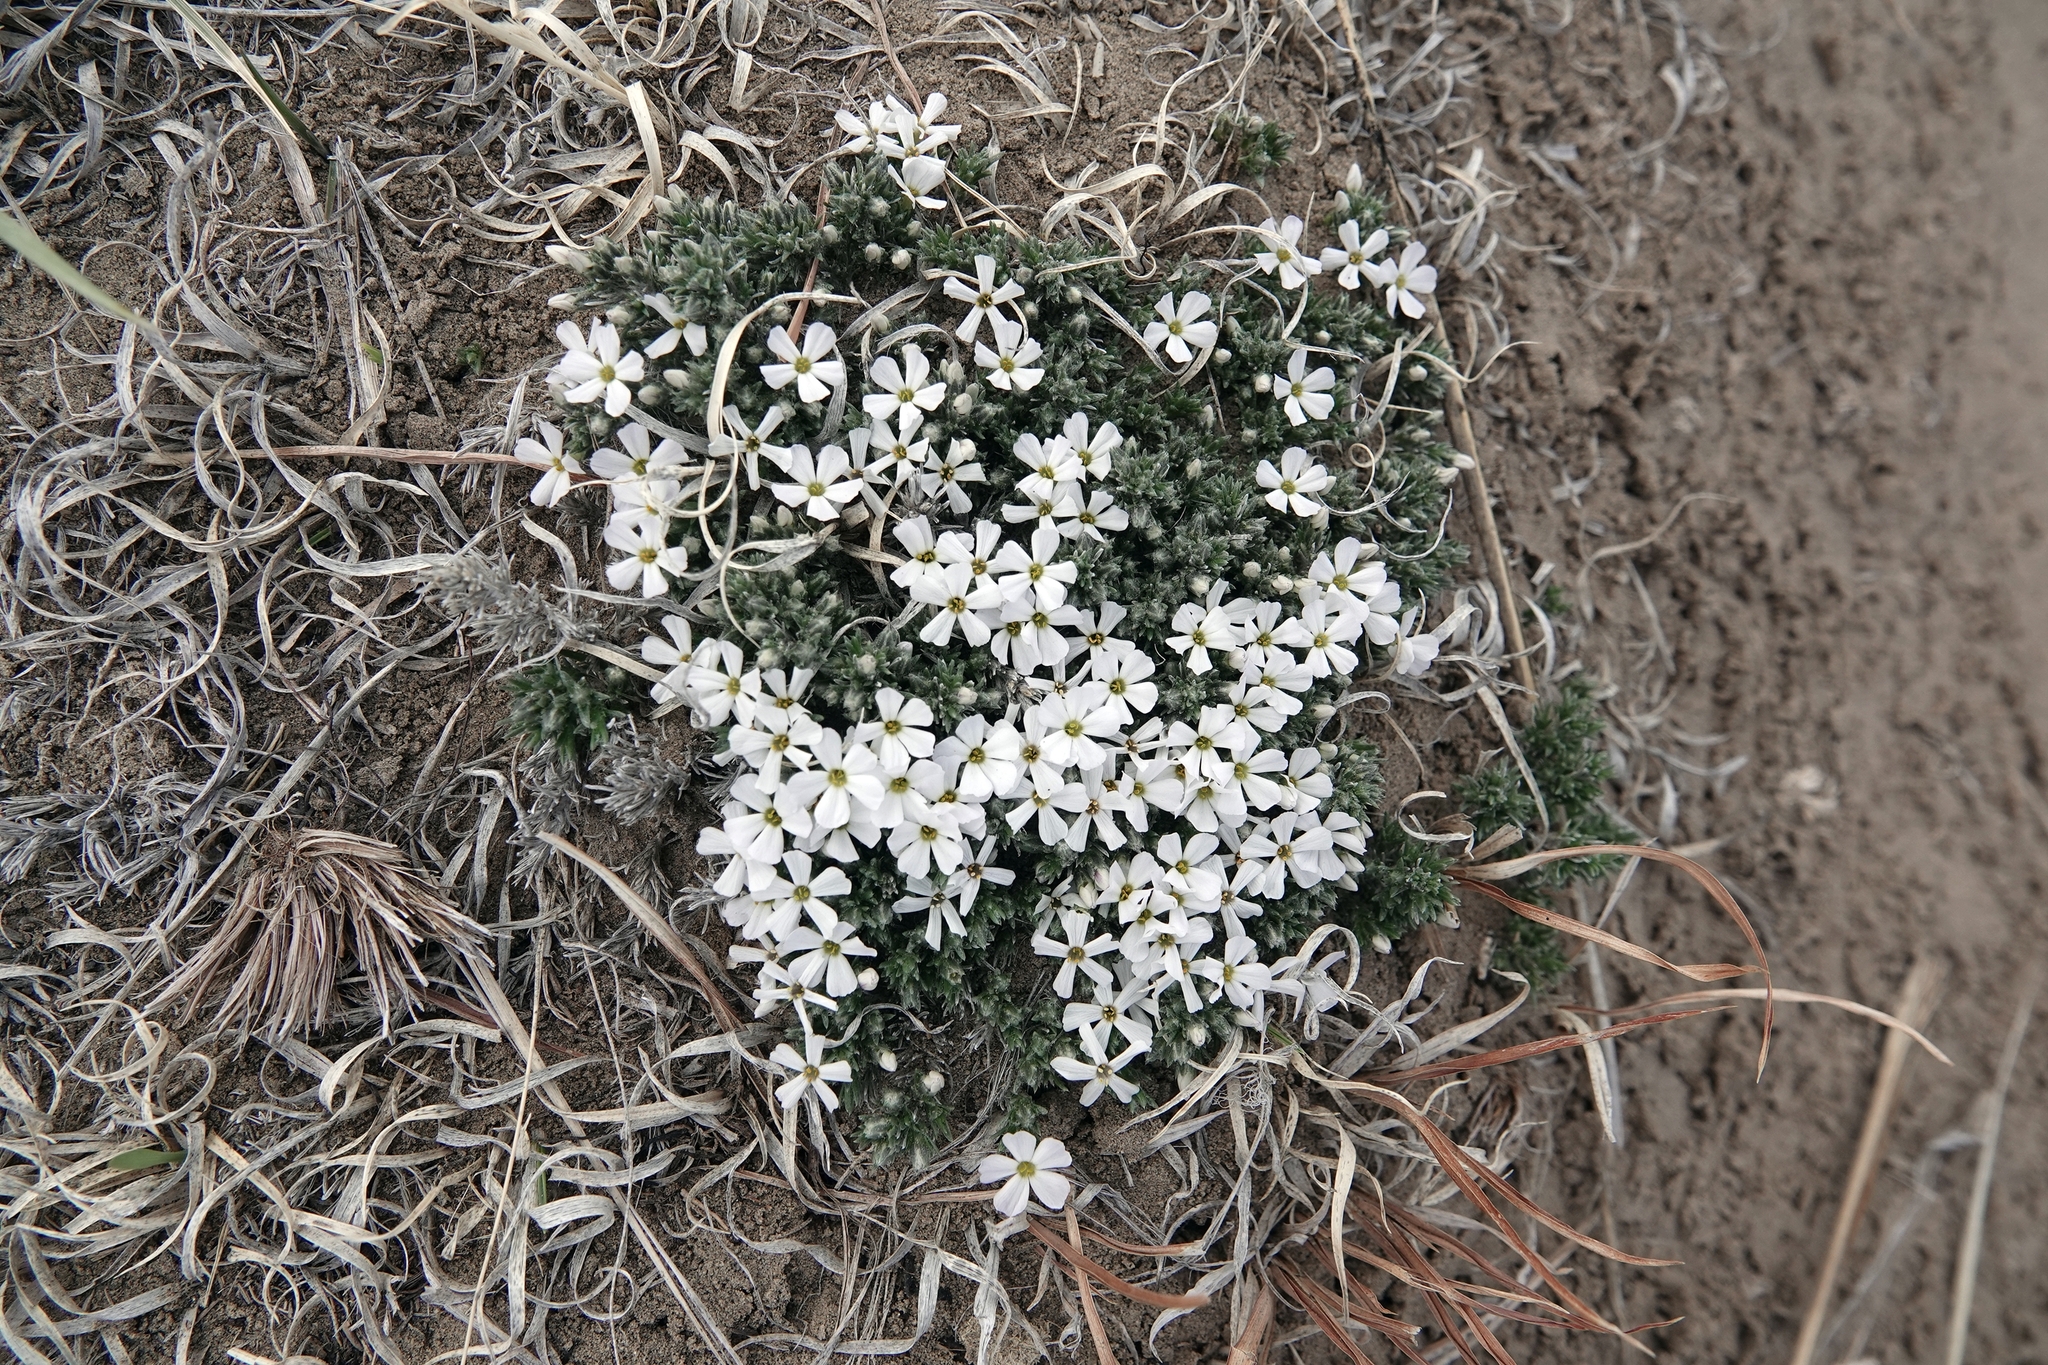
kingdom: Plantae
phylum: Tracheophyta
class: Magnoliopsida
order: Ericales
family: Polemoniaceae
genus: Phlox
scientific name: Phlox hoodii
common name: Moss phlox
